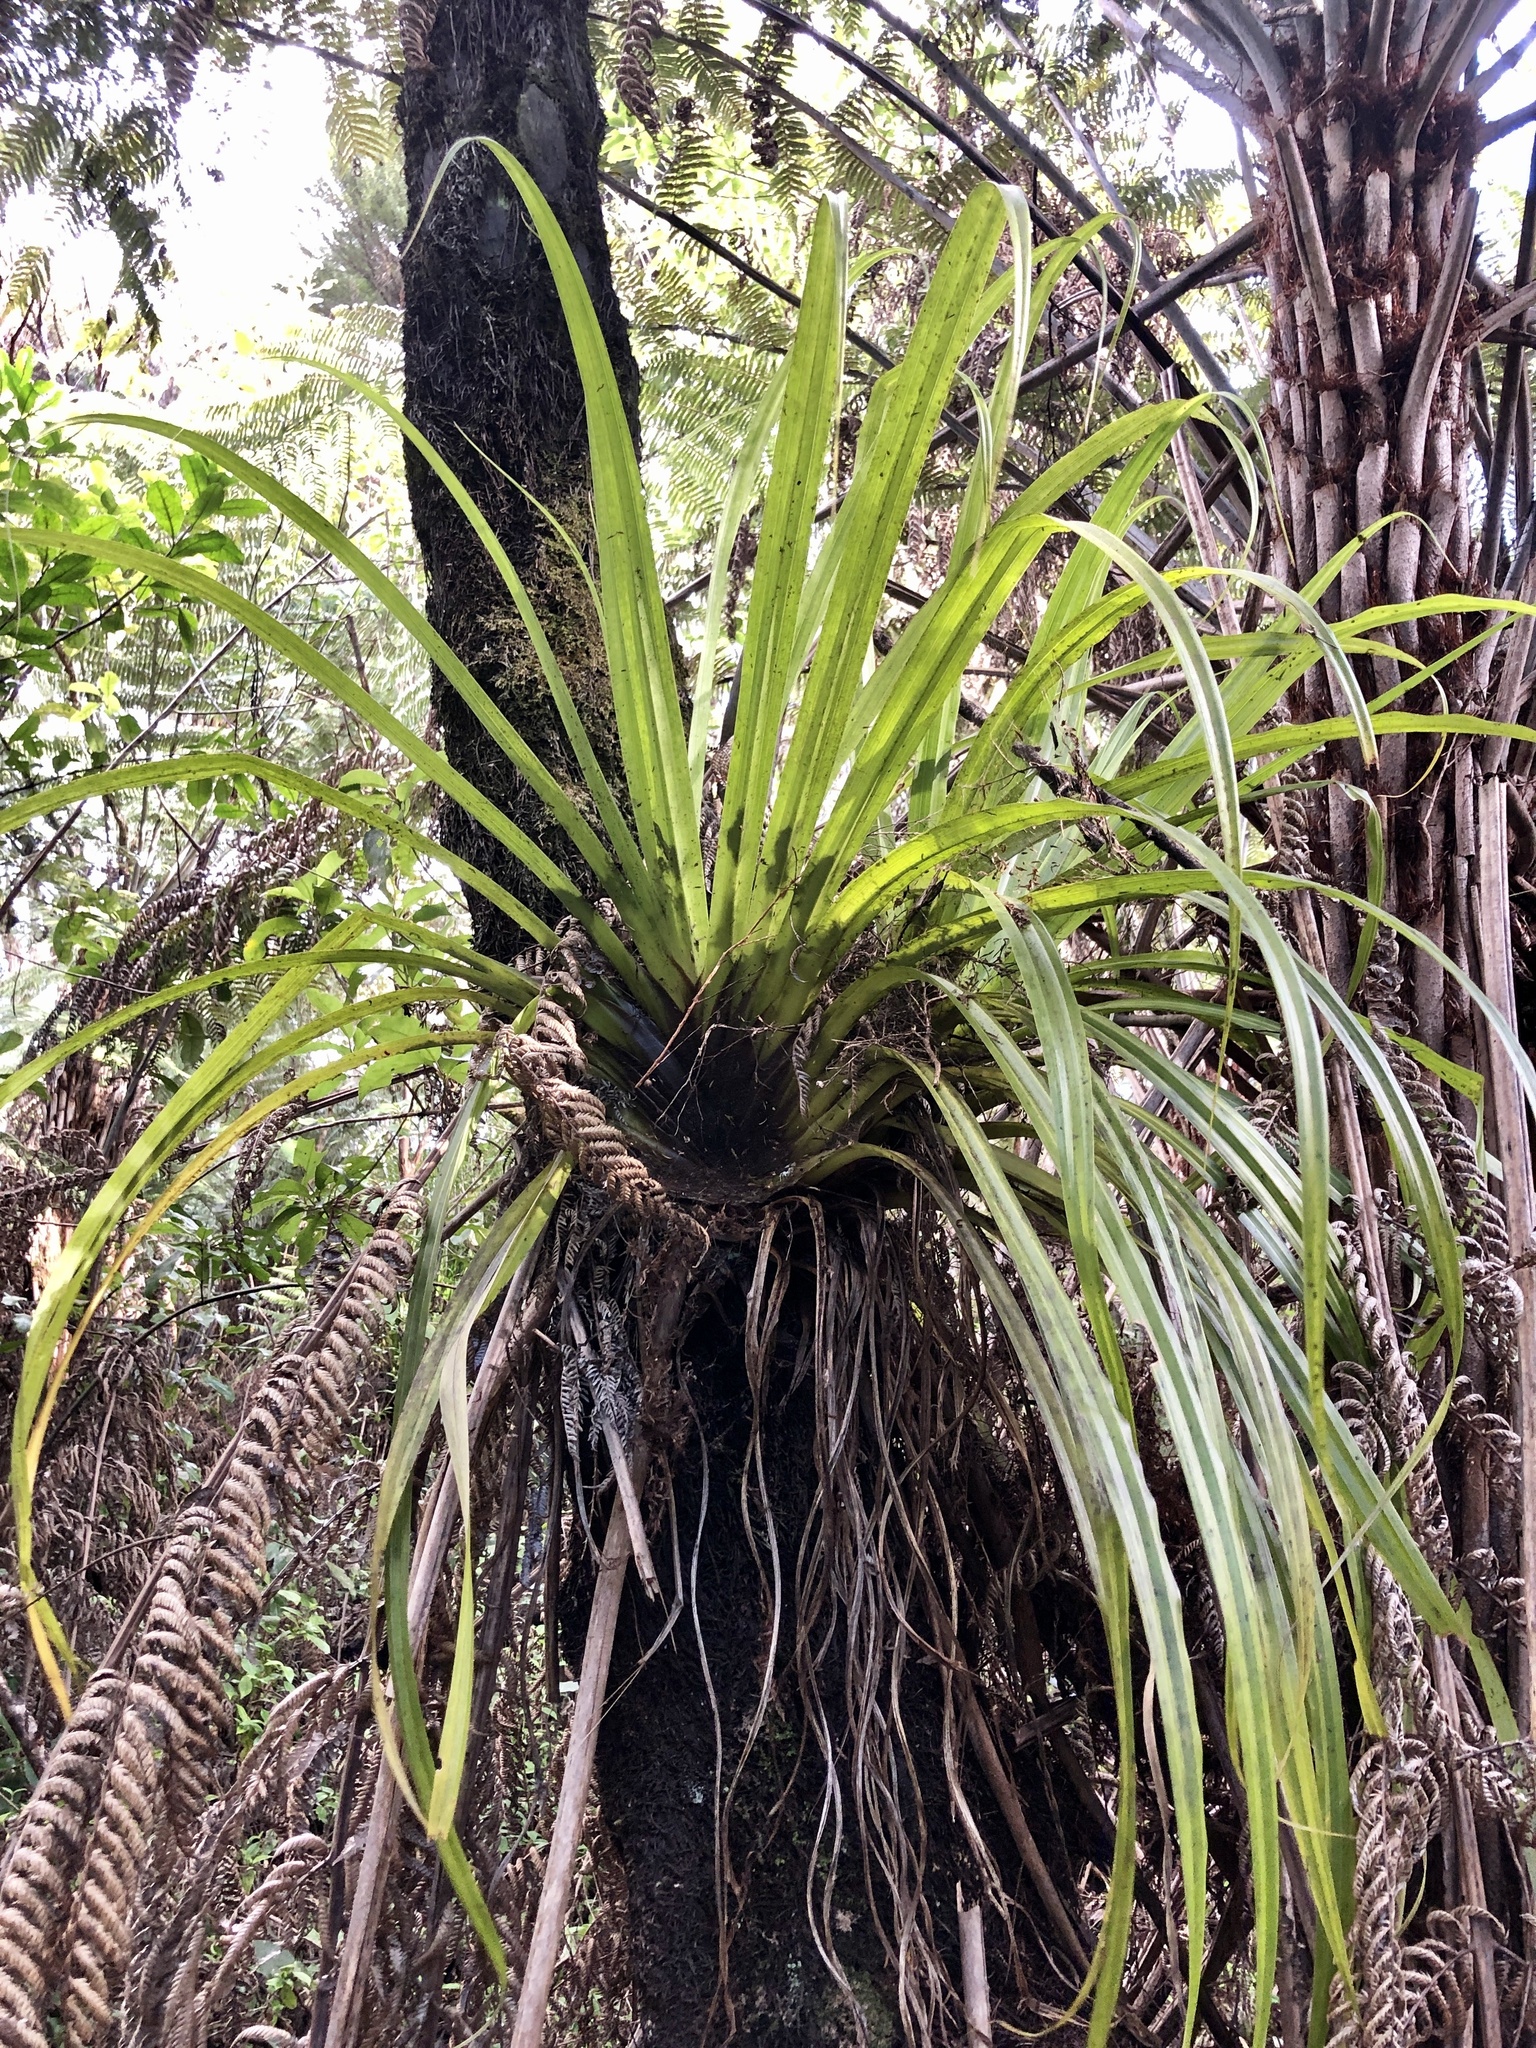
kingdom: Plantae
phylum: Tracheophyta
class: Liliopsida
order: Asparagales
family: Asteliaceae
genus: Astelia
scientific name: Astelia hastata
